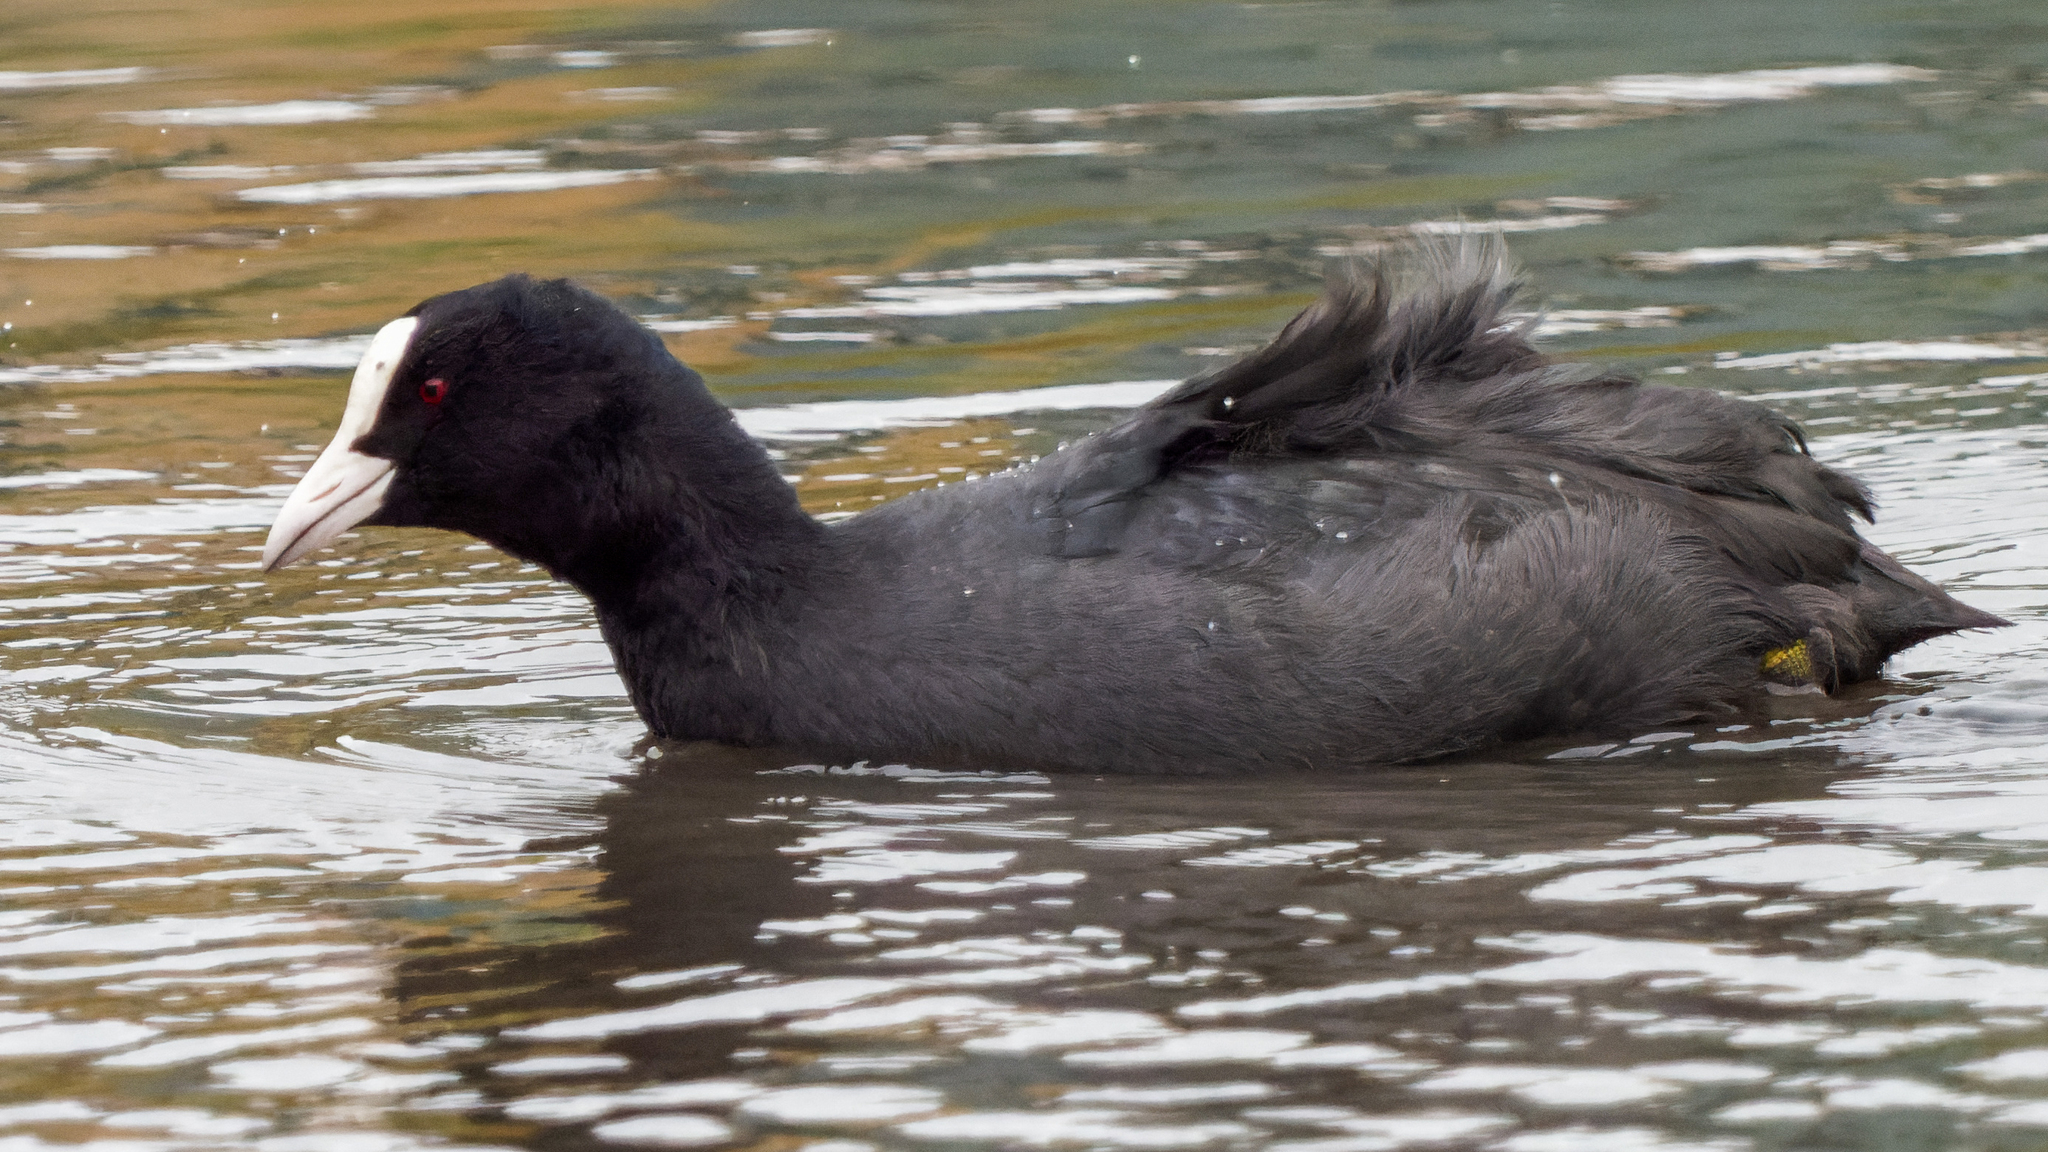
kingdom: Animalia
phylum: Chordata
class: Aves
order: Gruiformes
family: Rallidae
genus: Fulica
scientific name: Fulica atra
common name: Eurasian coot
